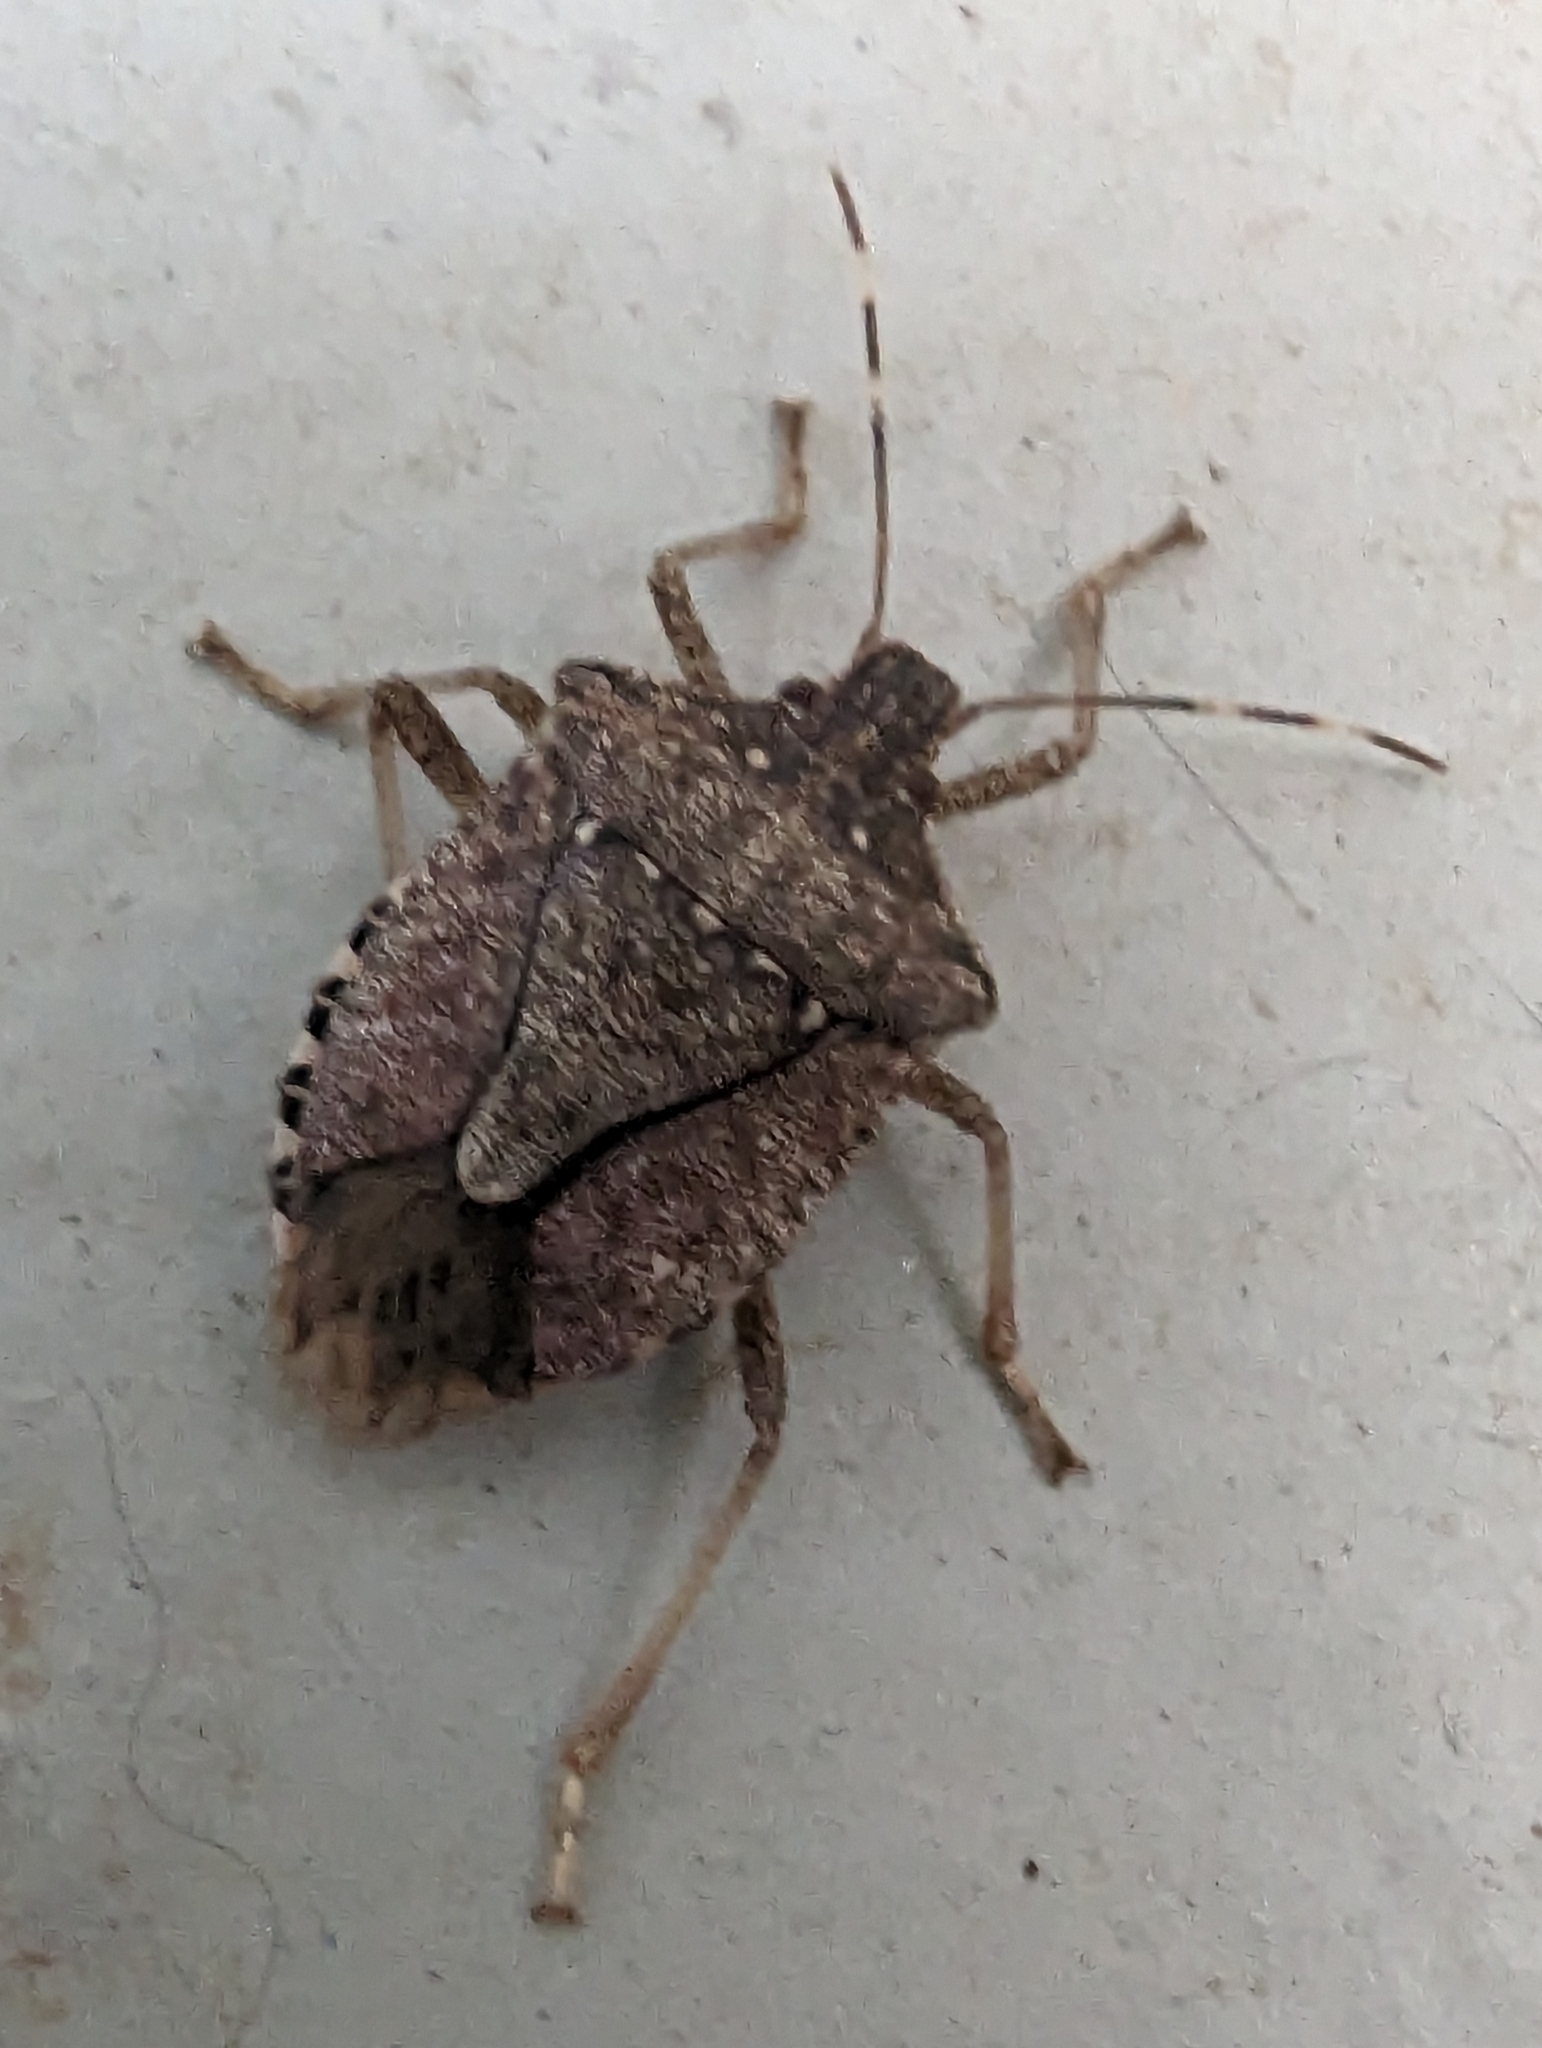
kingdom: Animalia
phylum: Arthropoda
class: Insecta
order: Hemiptera
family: Pentatomidae
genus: Halyomorpha
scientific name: Halyomorpha halys
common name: Brown marmorated stink bug
